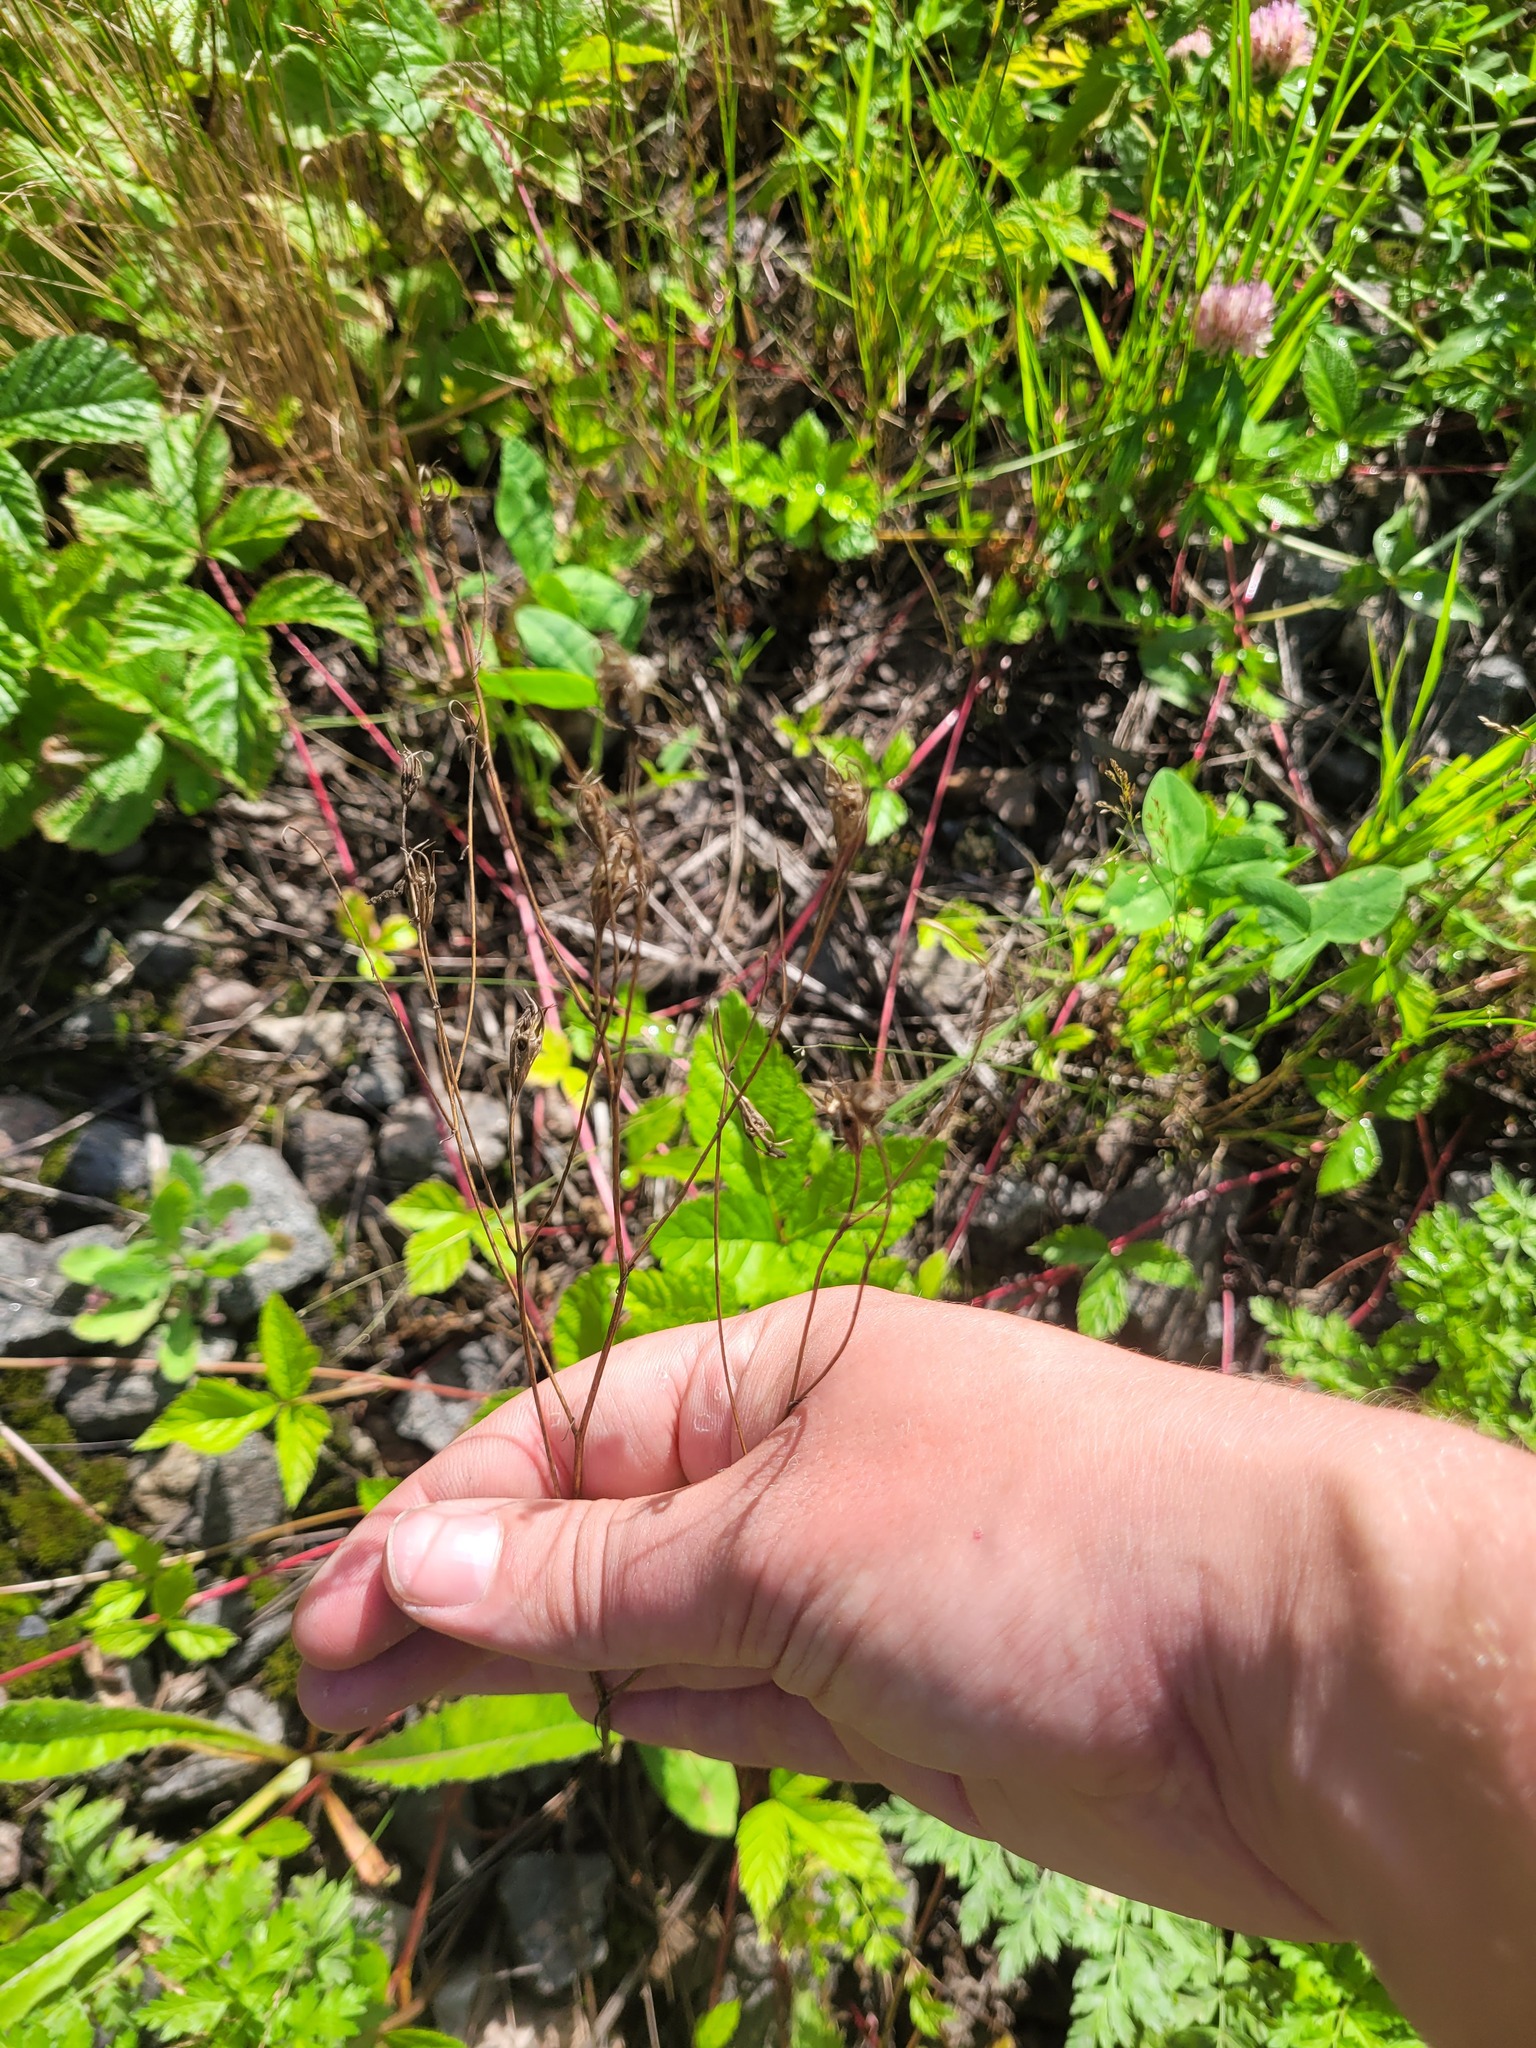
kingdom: Plantae
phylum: Tracheophyta
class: Magnoliopsida
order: Asterales
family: Campanulaceae
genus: Campanula
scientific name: Campanula patula
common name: Spreading bellflower
